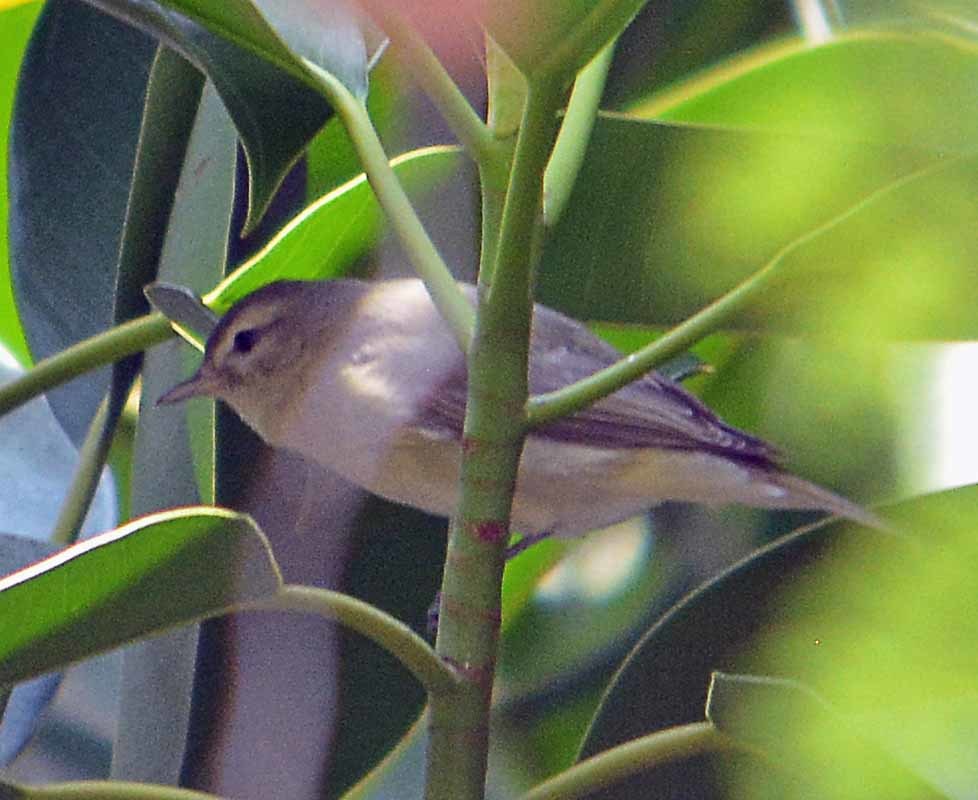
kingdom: Animalia
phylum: Chordata
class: Aves
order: Passeriformes
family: Vireonidae
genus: Vireo
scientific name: Vireo gilvus
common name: Warbling vireo
